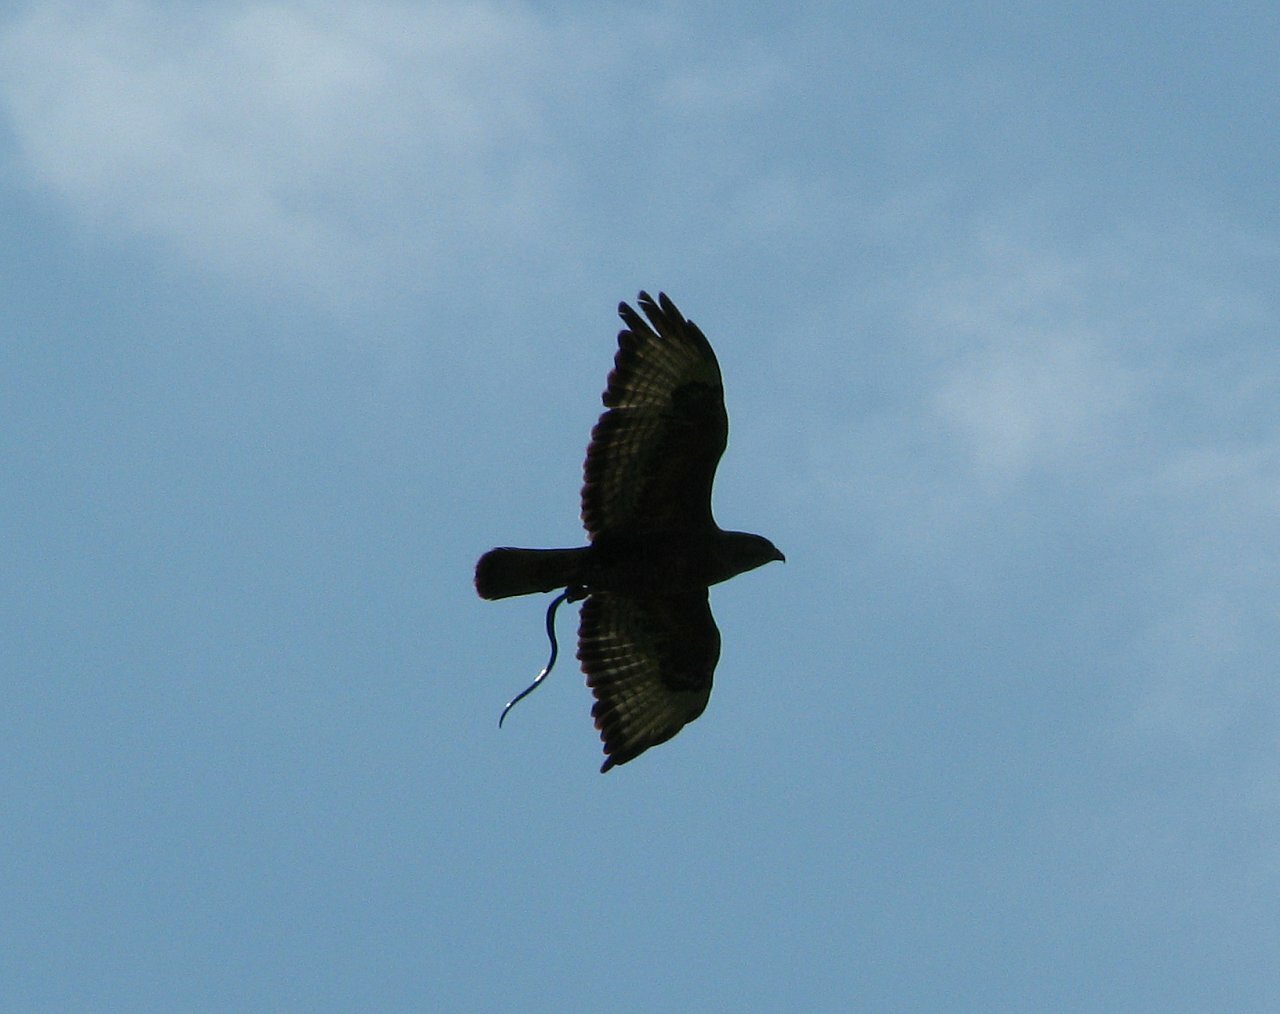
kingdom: Animalia
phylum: Chordata
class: Aves
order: Accipitriformes
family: Accipitridae
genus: Buteo
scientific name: Buteo buteo
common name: Common buzzard
